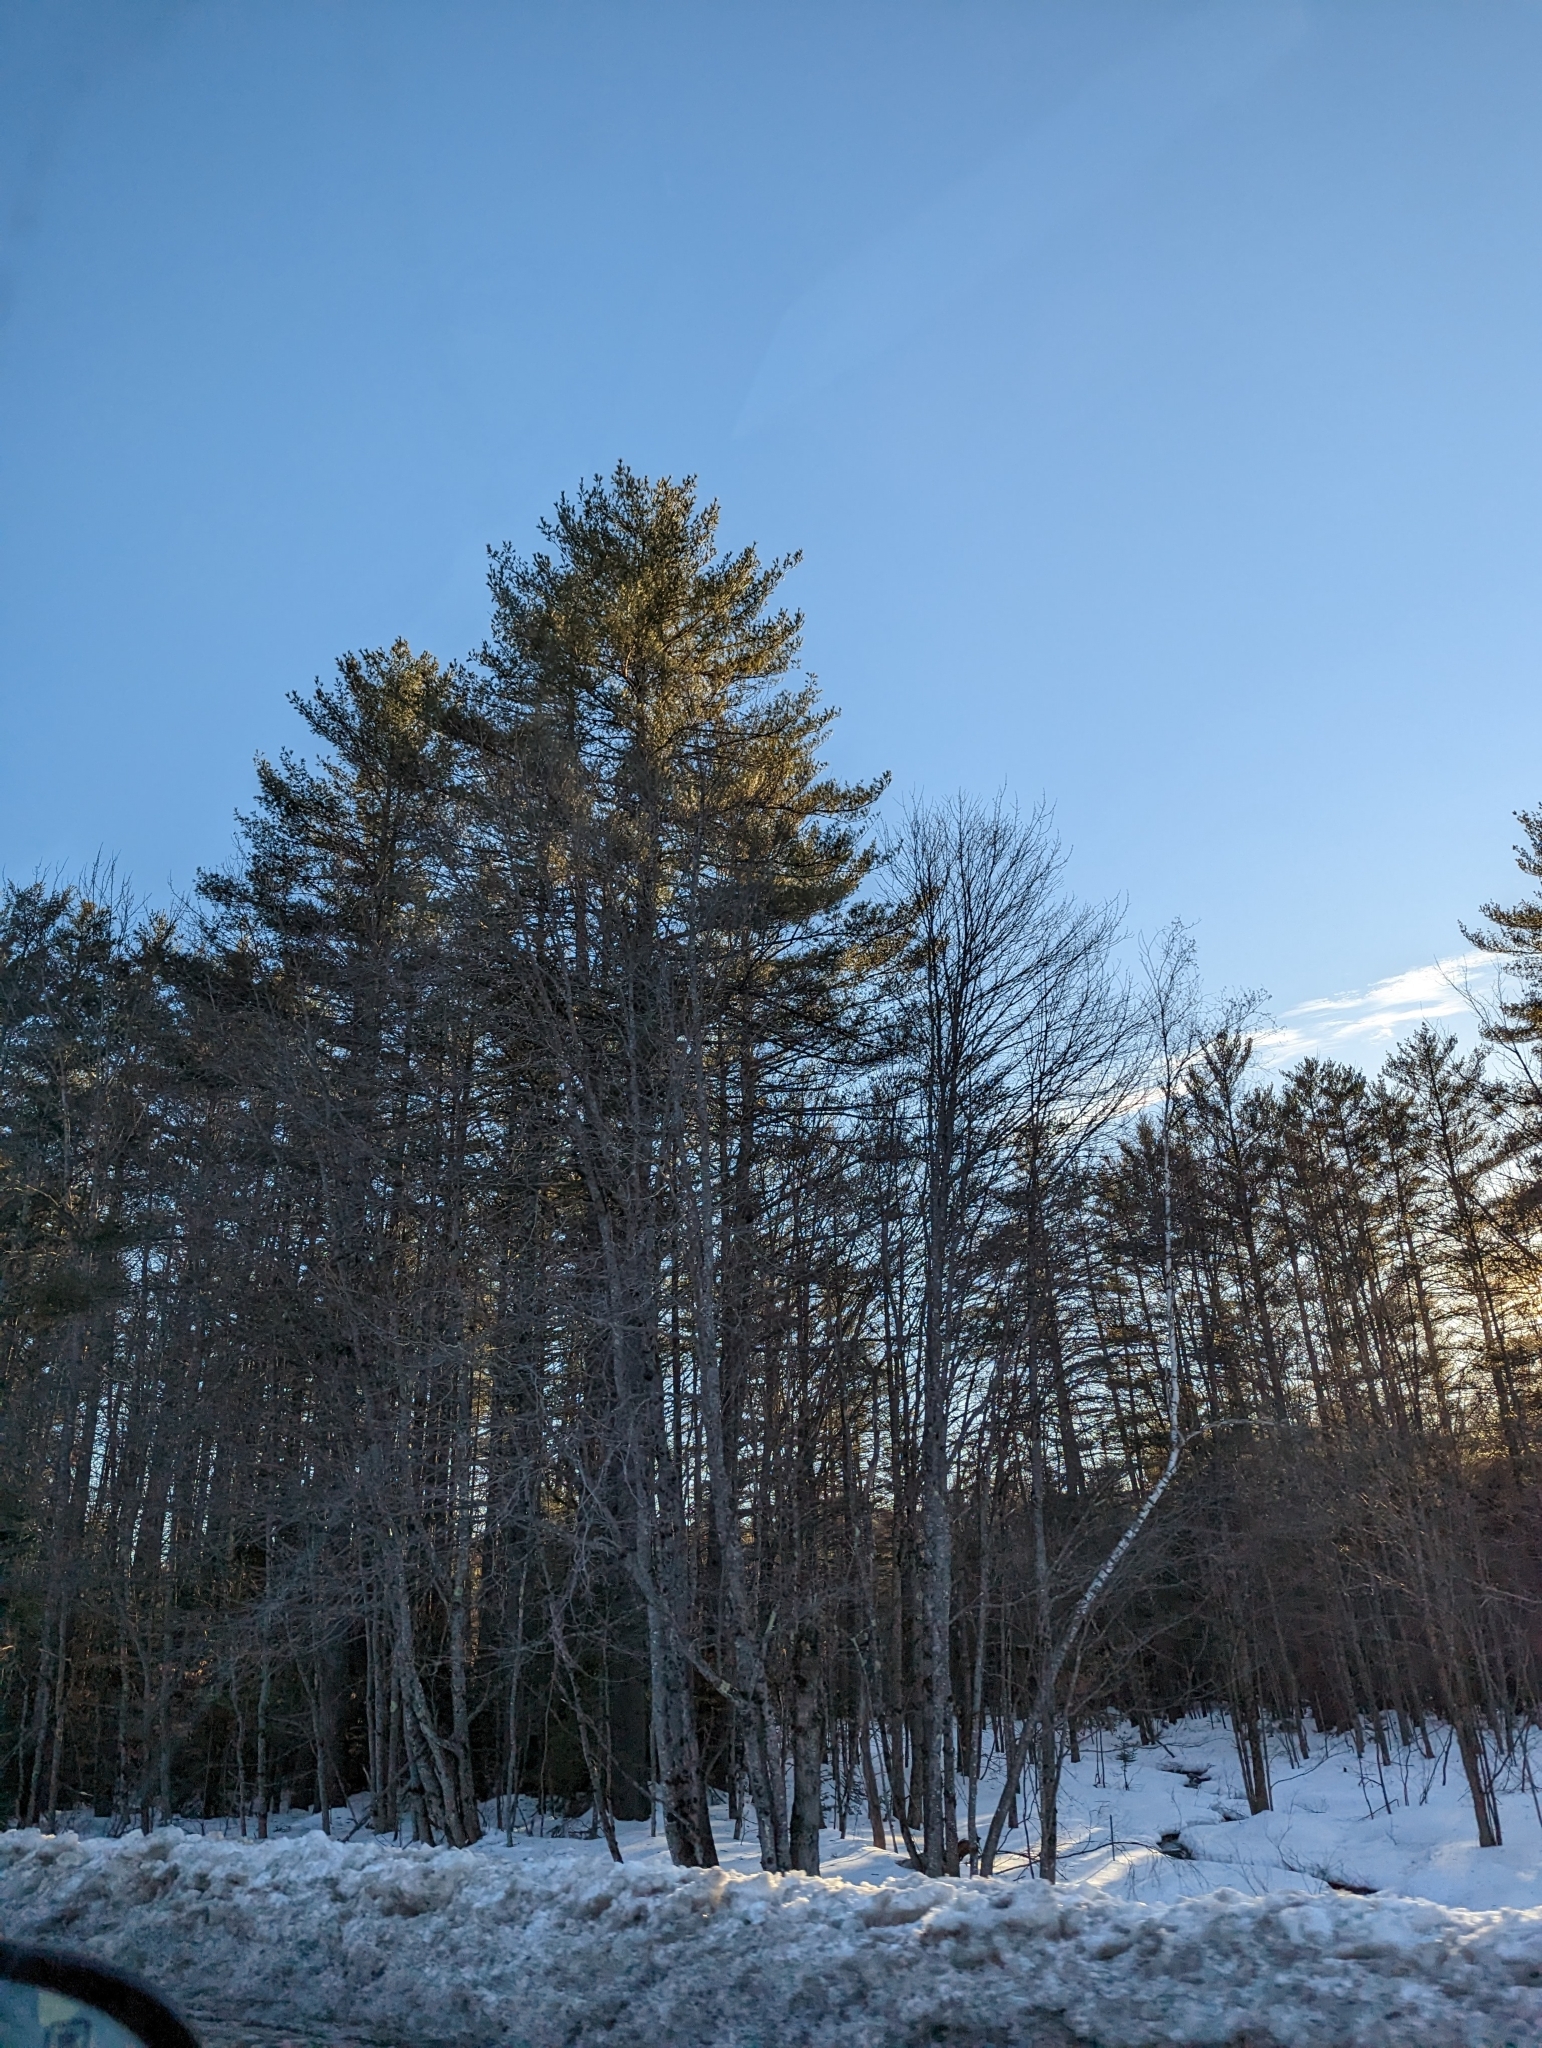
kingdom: Plantae
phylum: Tracheophyta
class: Pinopsida
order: Pinales
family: Pinaceae
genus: Pinus
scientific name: Pinus strobus
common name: Weymouth pine
